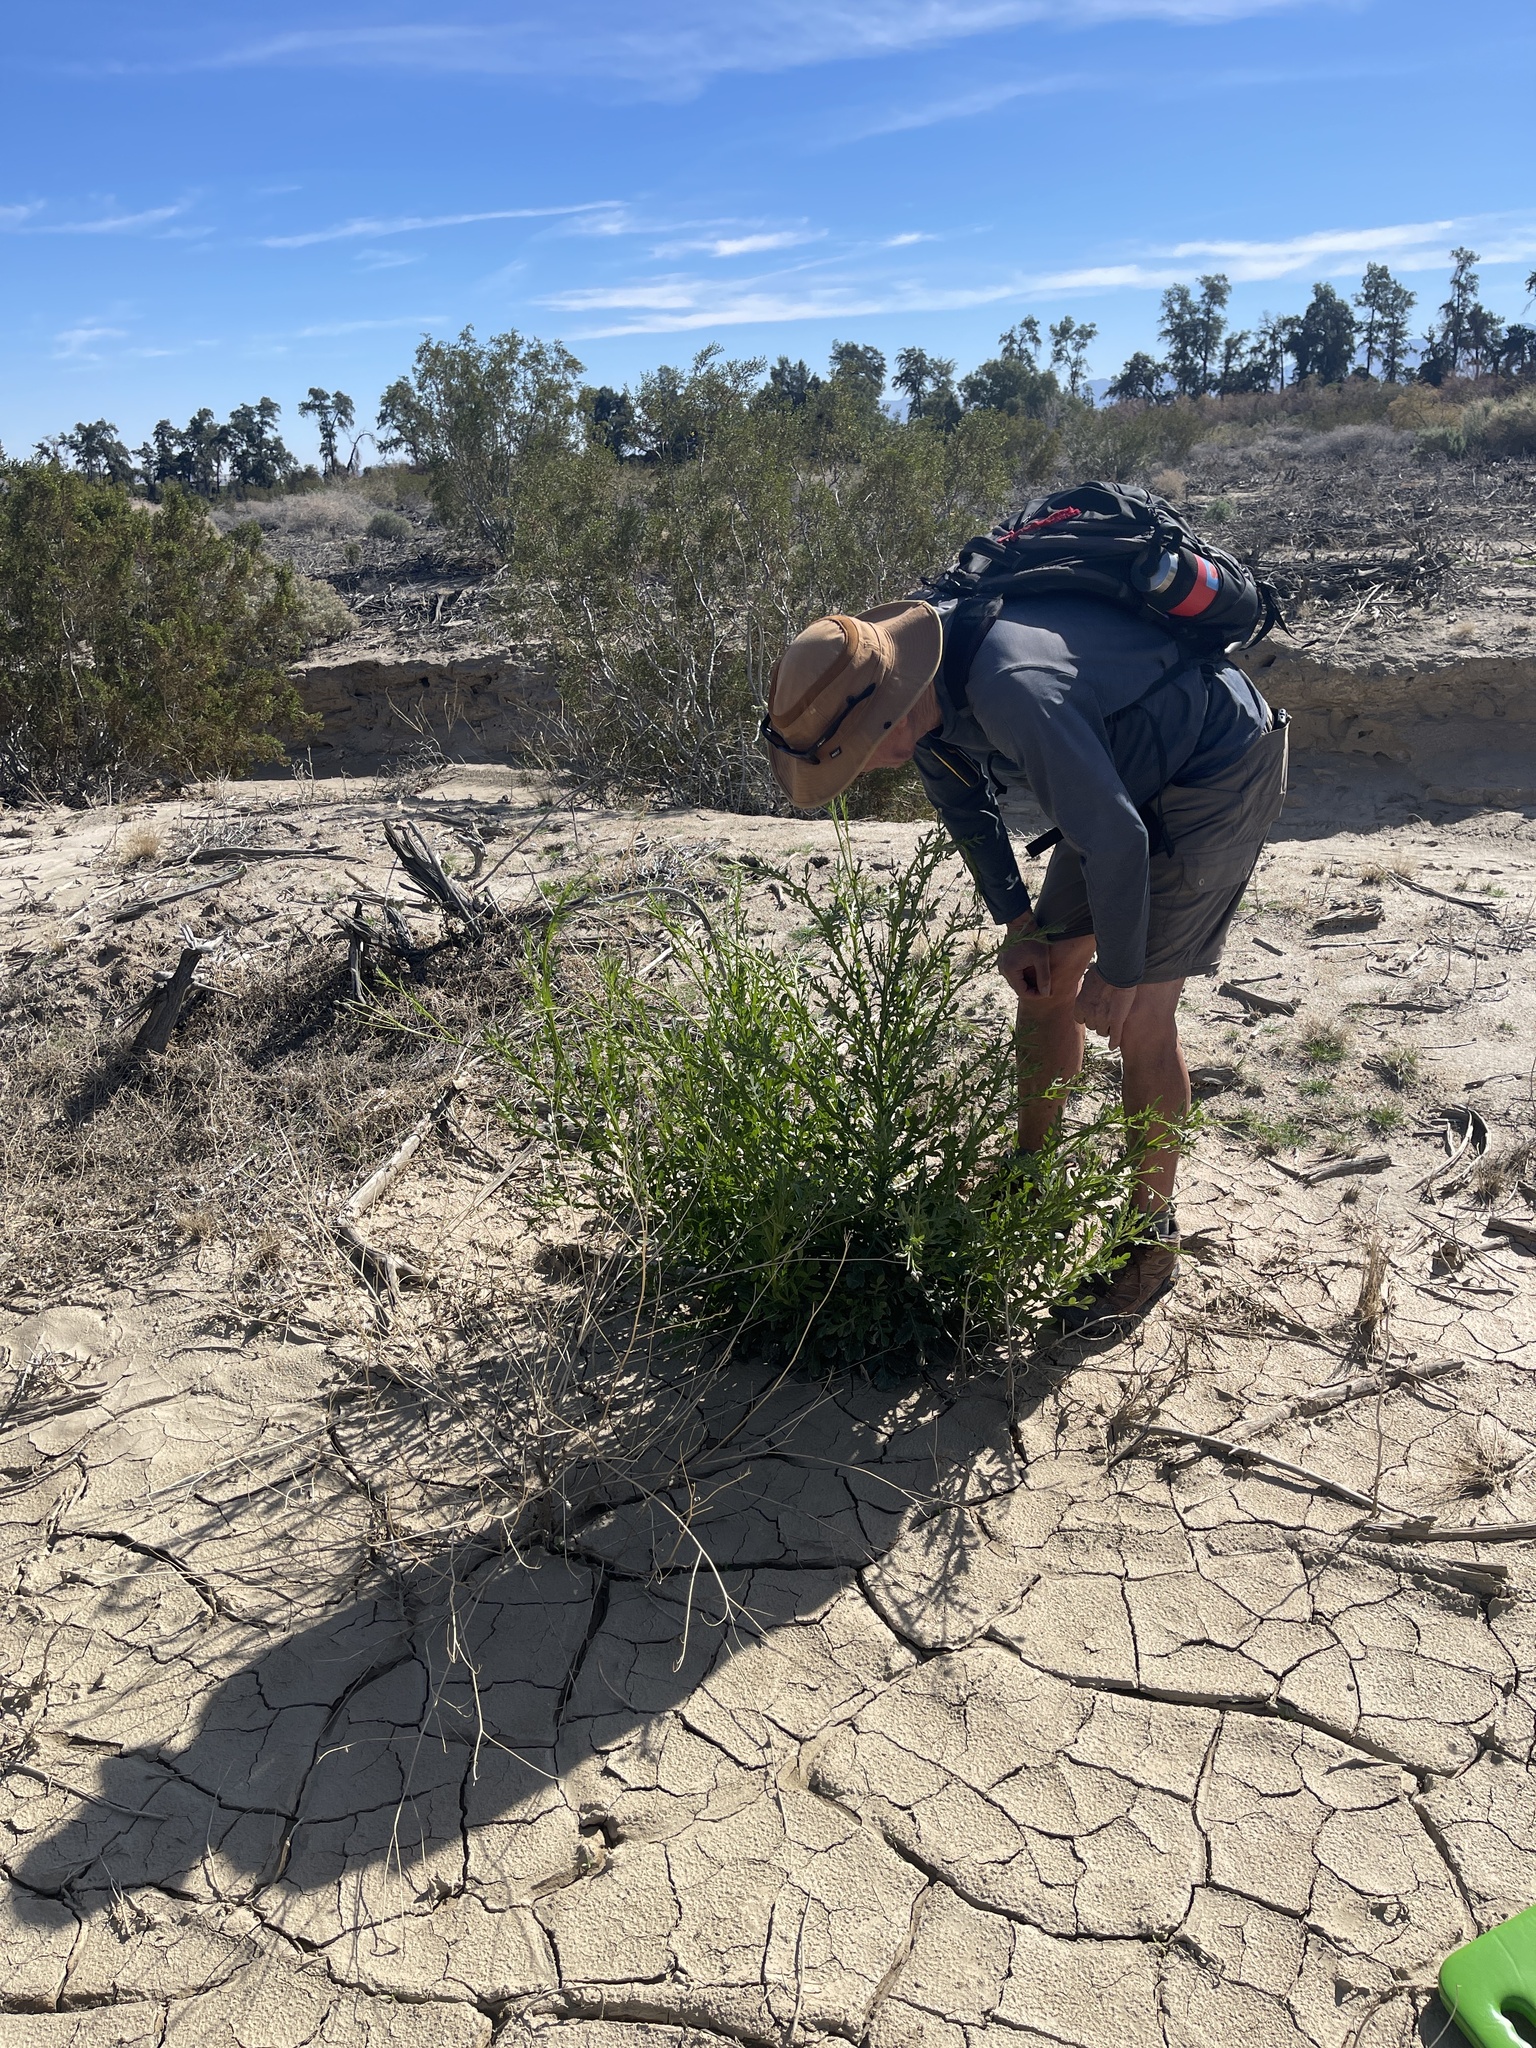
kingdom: Plantae
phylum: Tracheophyta
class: Magnoliopsida
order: Asterales
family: Asteraceae
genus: Volutaria
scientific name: Volutaria tubuliflora
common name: Desert knapweed
